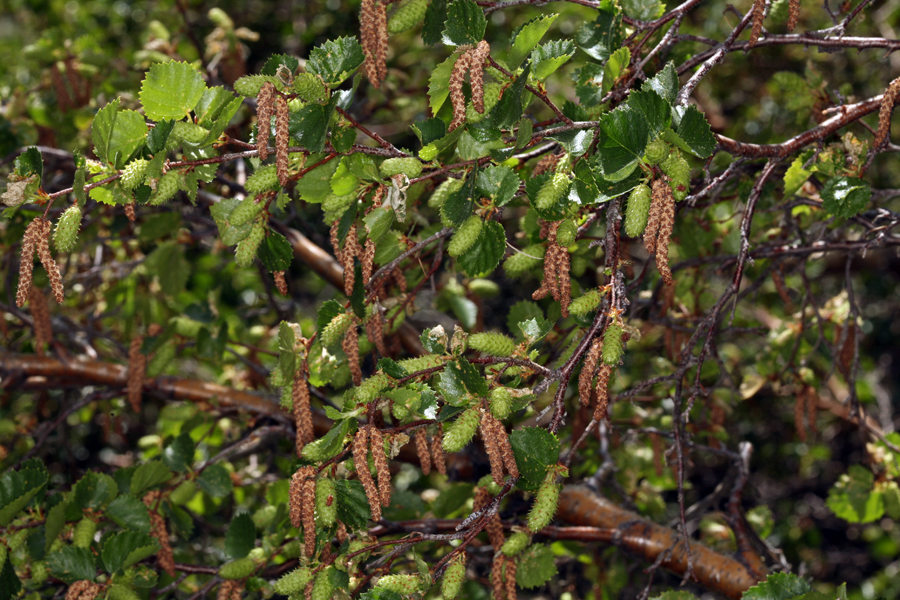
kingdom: Plantae
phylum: Tracheophyta
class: Magnoliopsida
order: Fagales
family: Betulaceae
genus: Betula
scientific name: Betula occidentalis
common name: River birch
